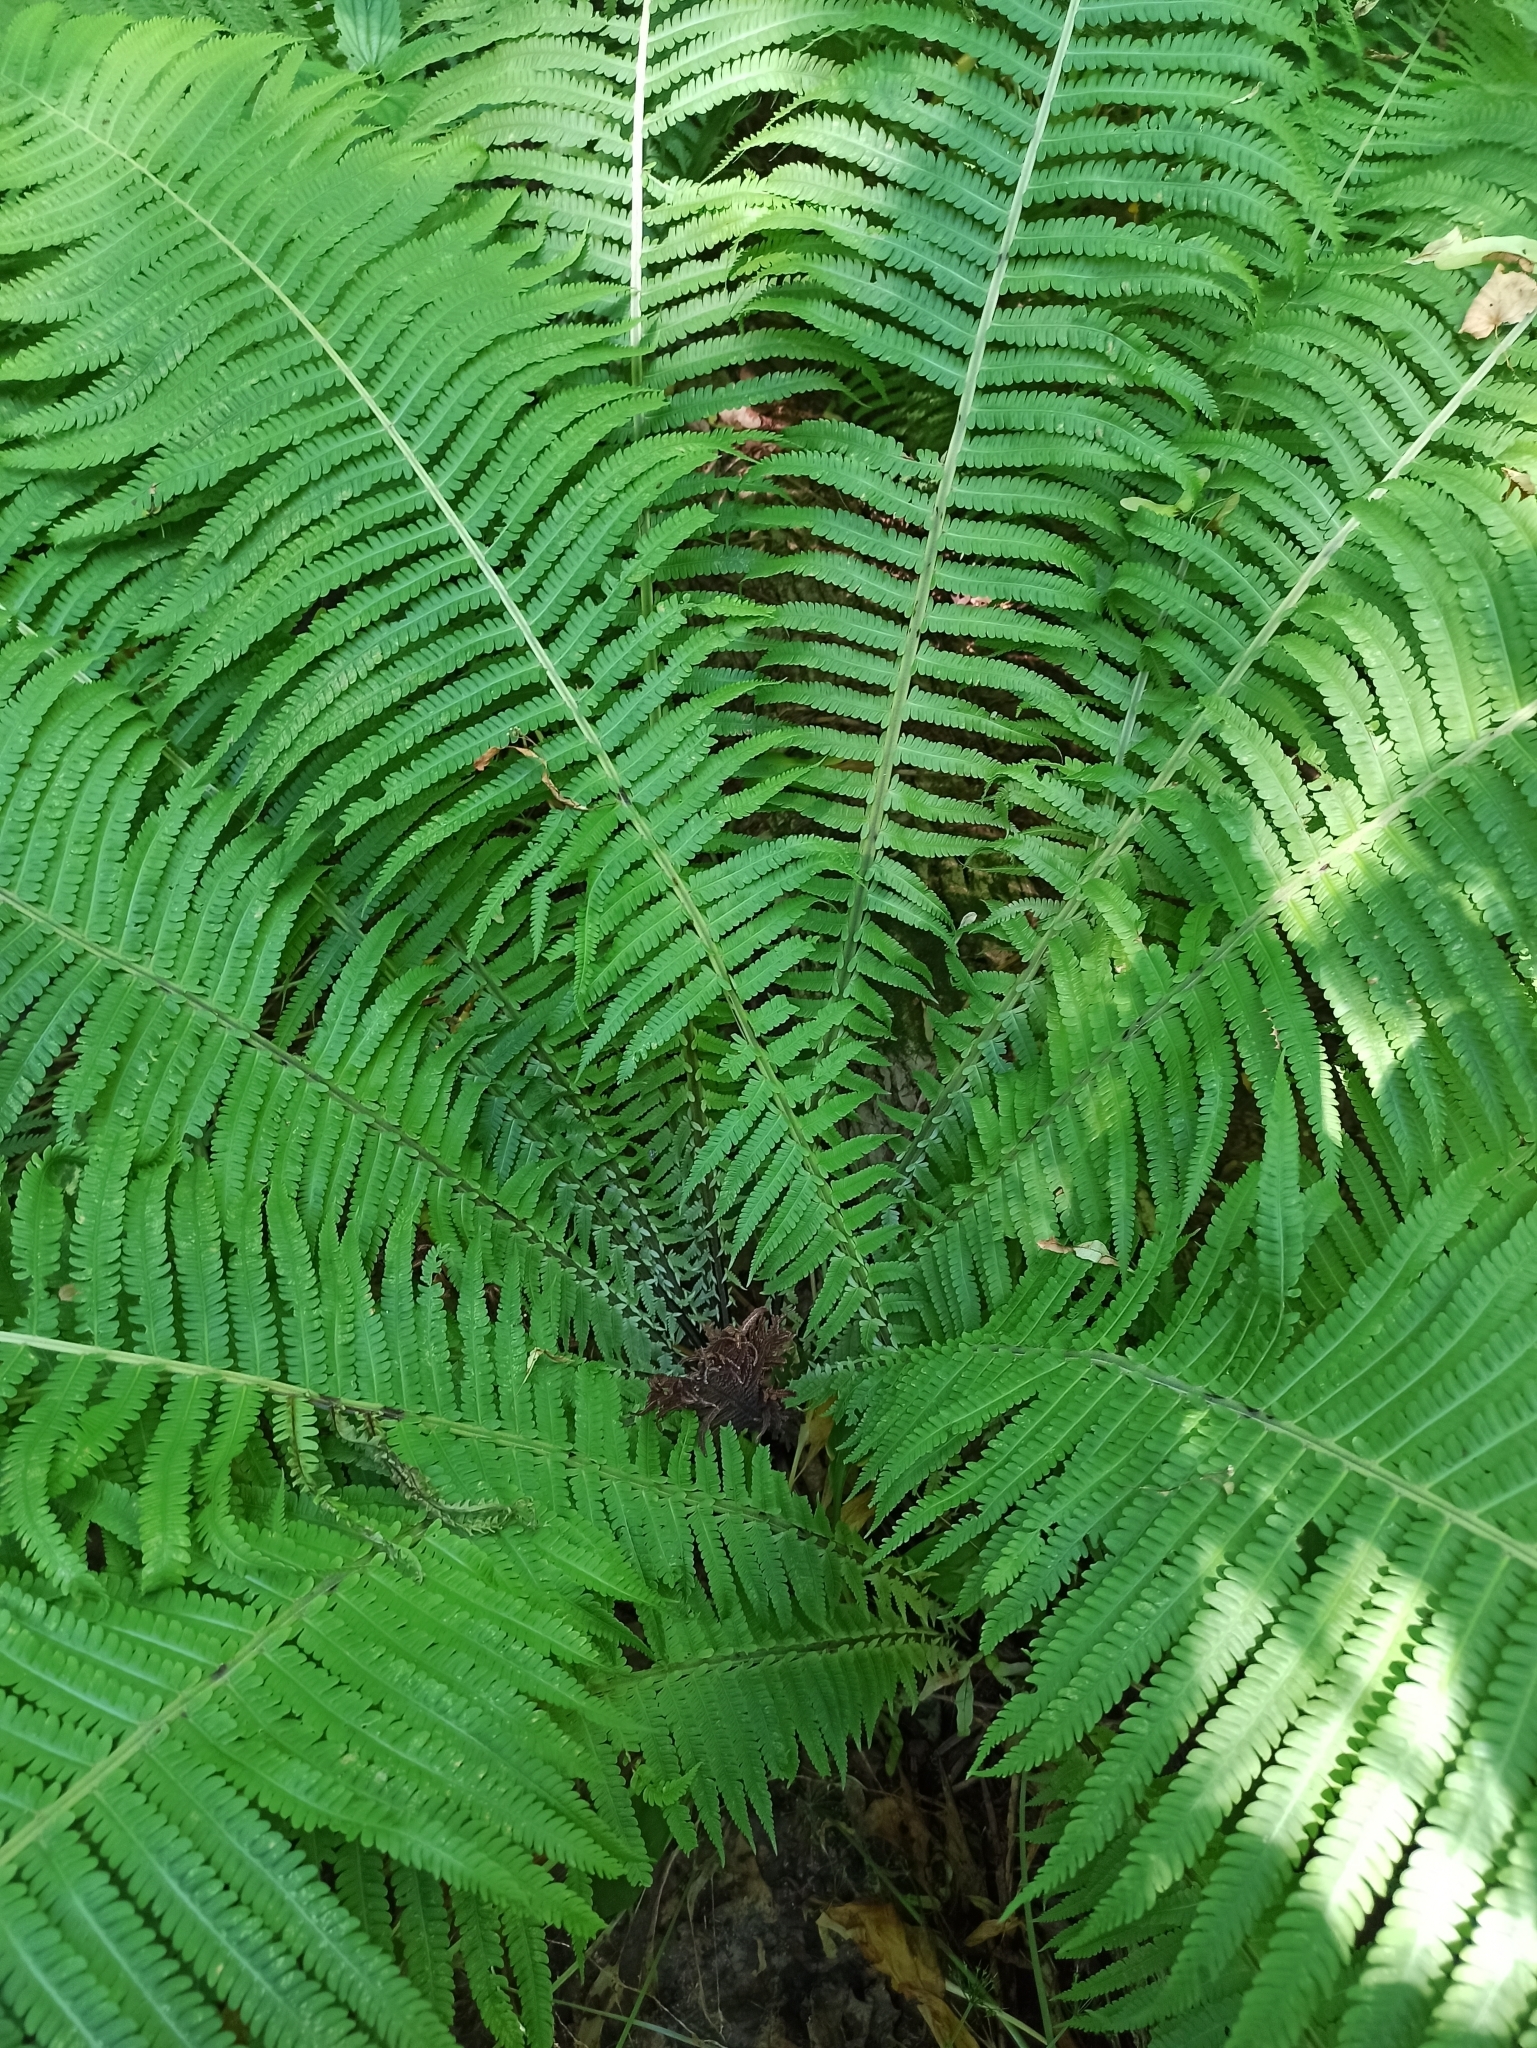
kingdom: Plantae
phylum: Tracheophyta
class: Polypodiopsida
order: Polypodiales
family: Onocleaceae
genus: Matteuccia
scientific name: Matteuccia struthiopteris
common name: Ostrich fern
